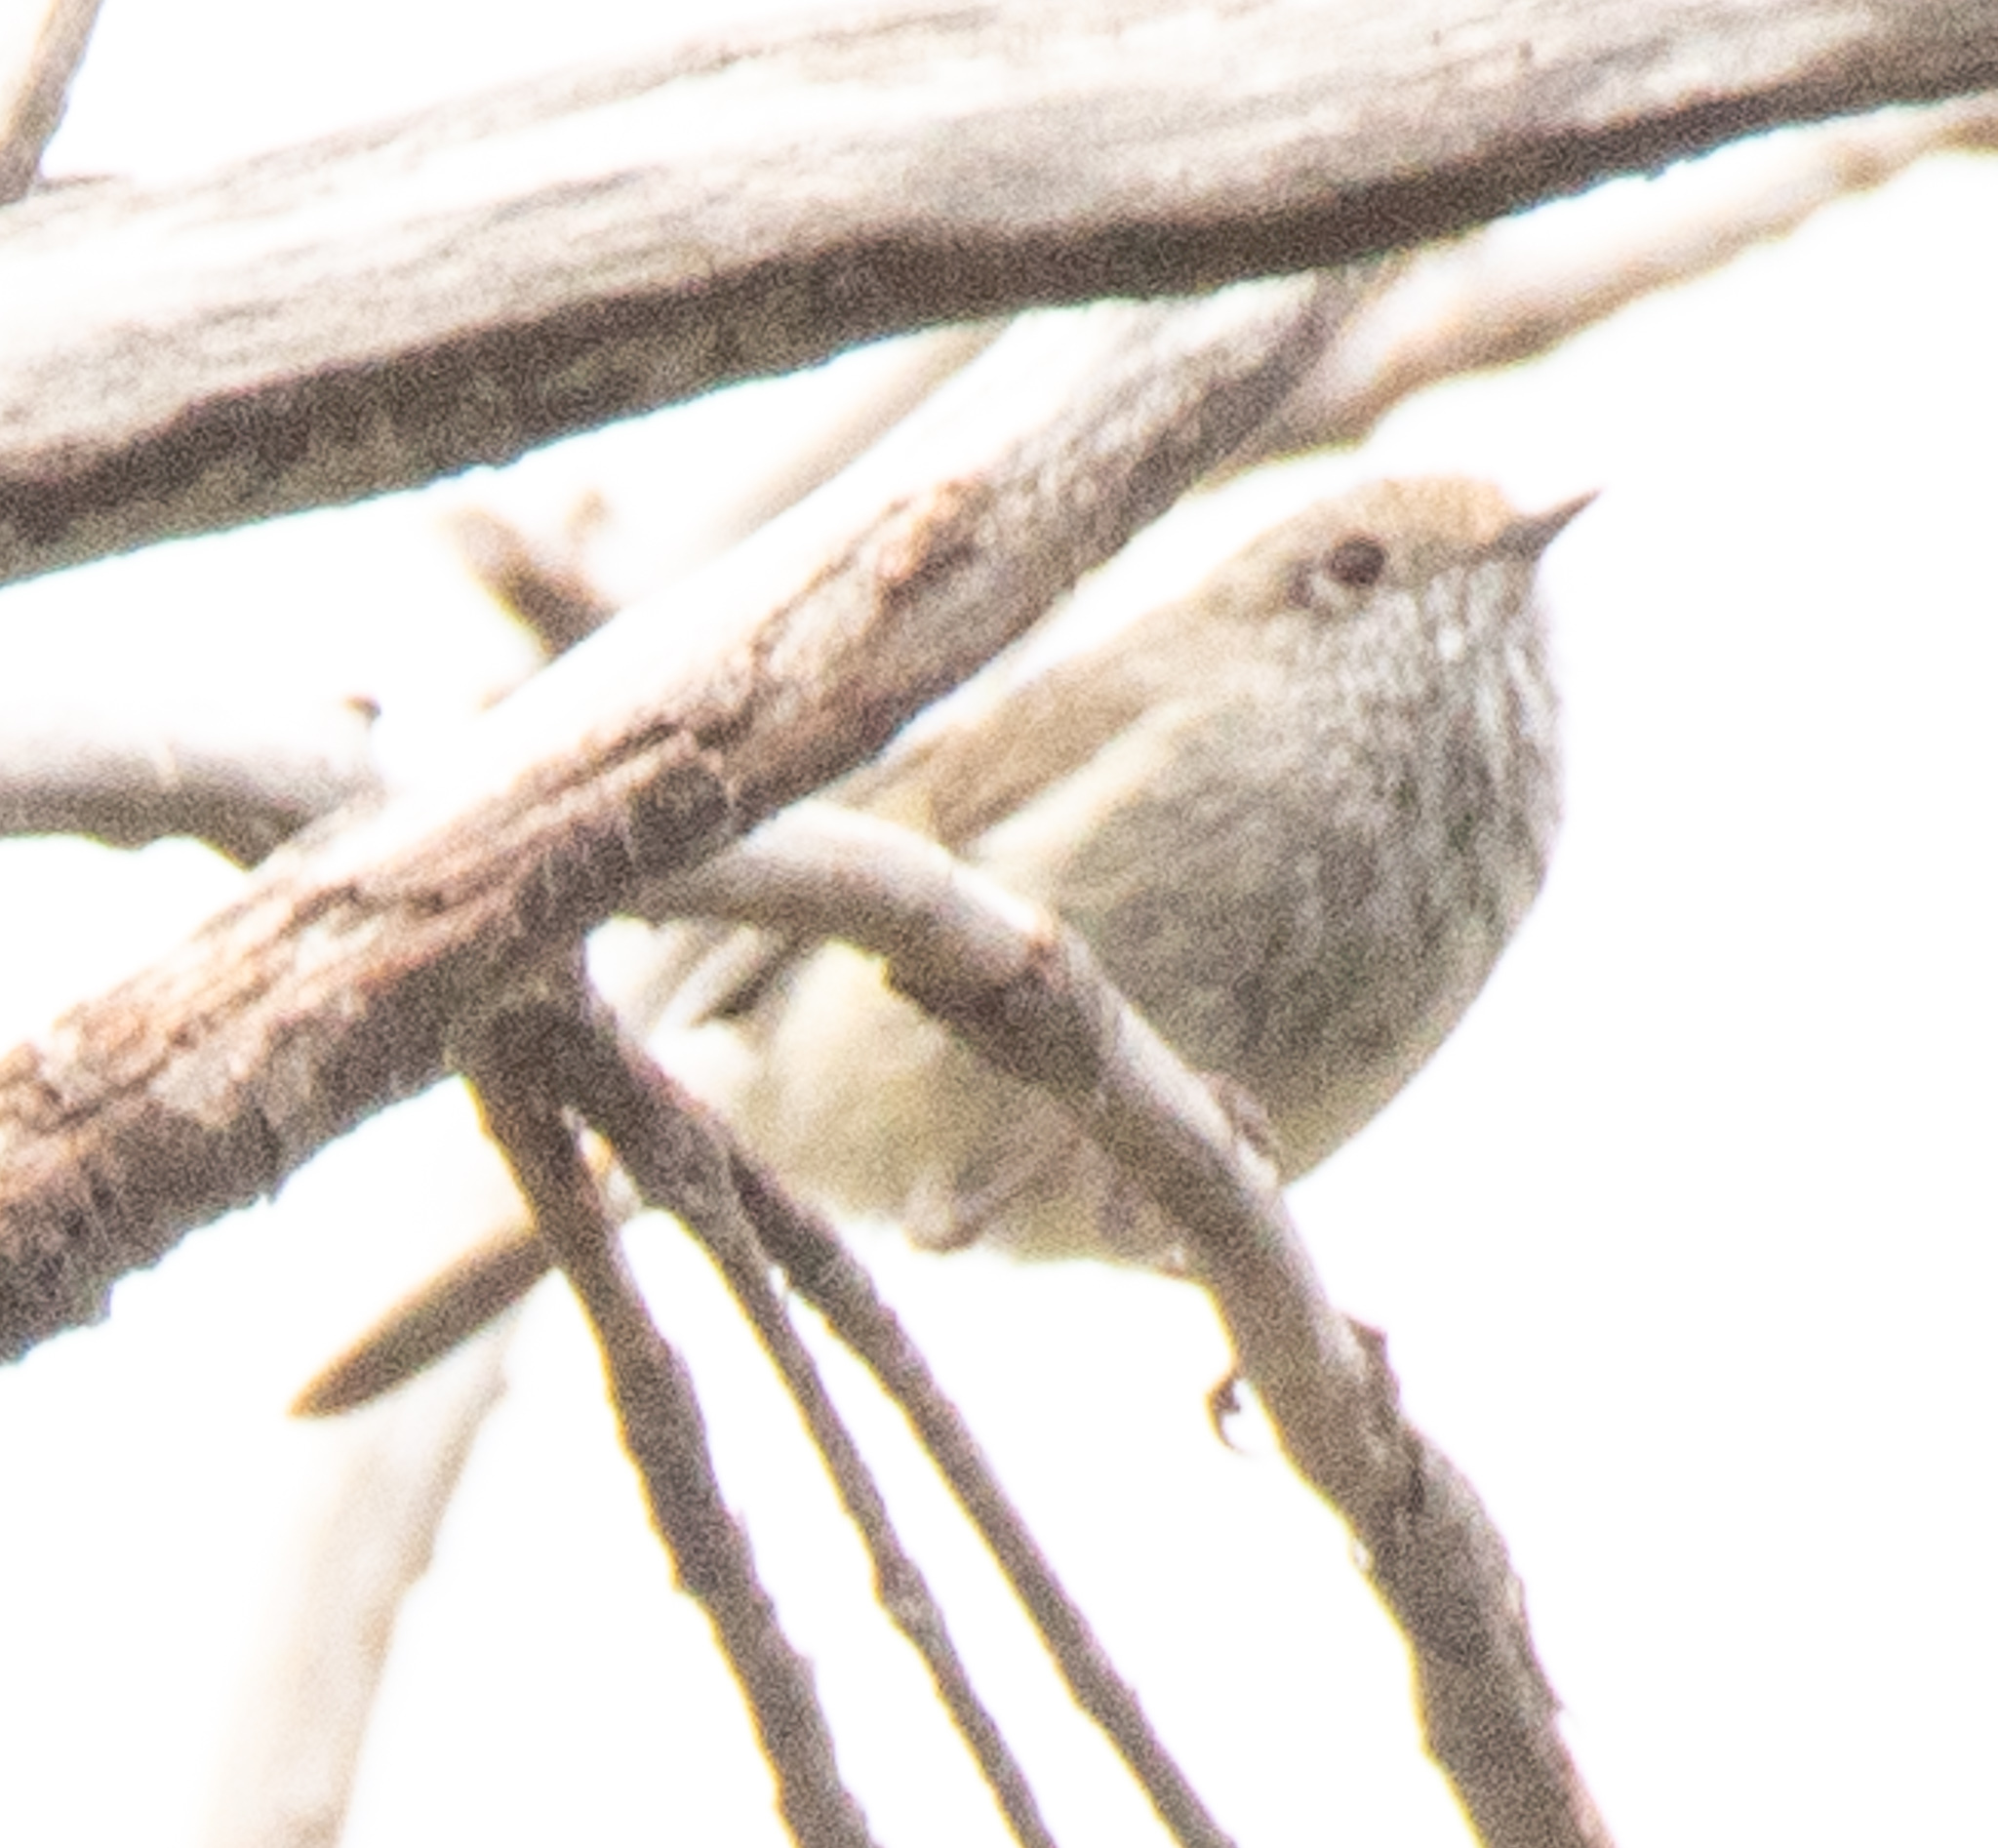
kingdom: Animalia
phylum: Chordata
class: Aves
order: Passeriformes
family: Acanthizidae
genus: Acanthiza
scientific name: Acanthiza pusilla
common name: Brown thornbill
